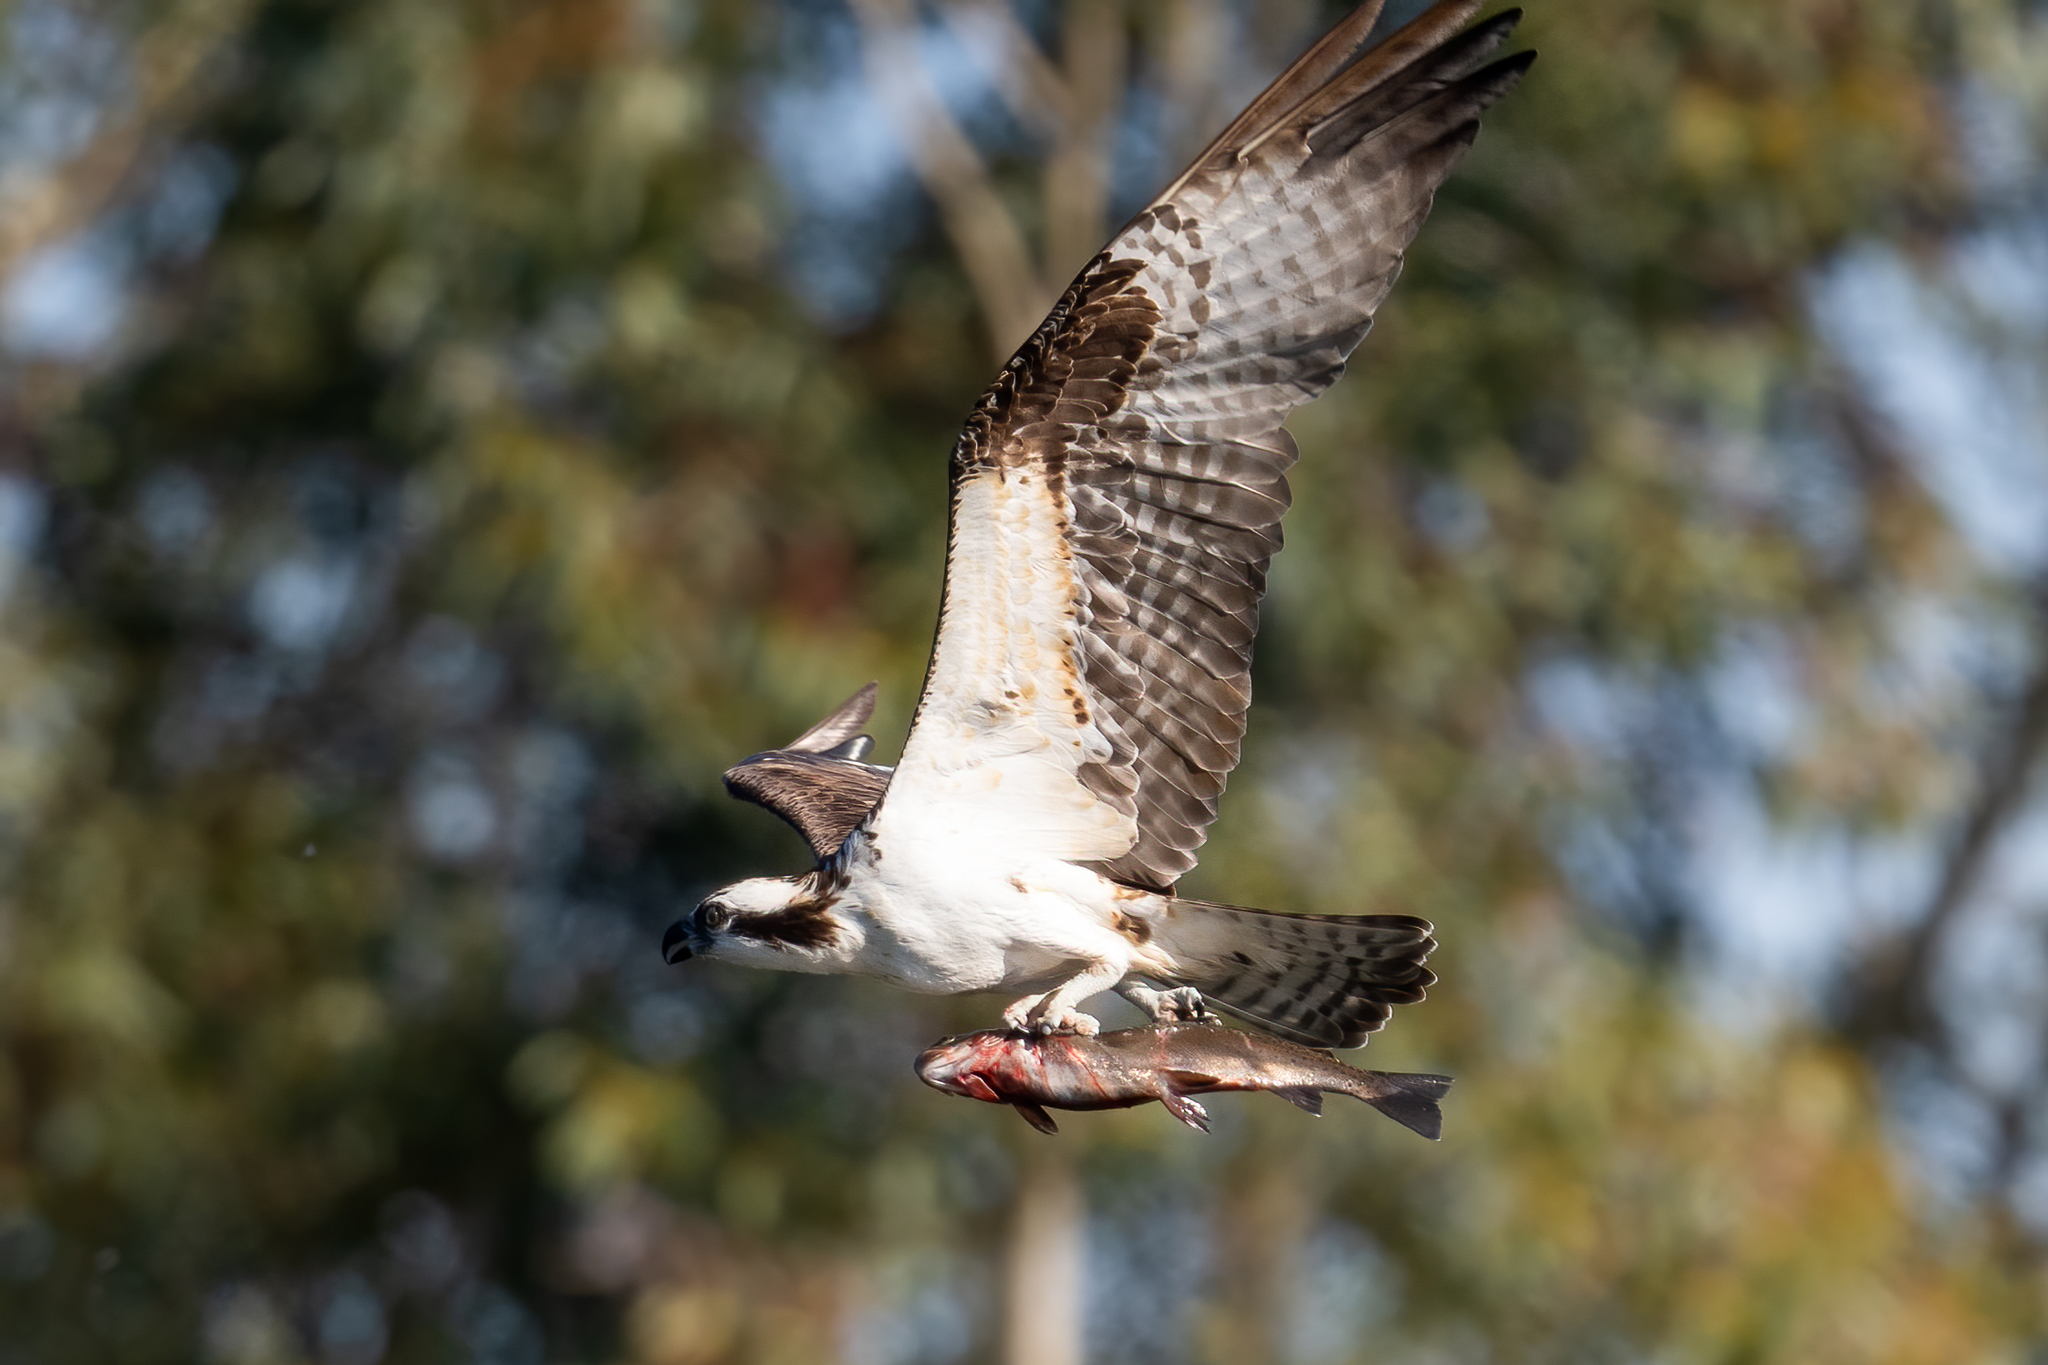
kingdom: Animalia
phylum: Chordata
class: Aves
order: Accipitriformes
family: Pandionidae
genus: Pandion
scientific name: Pandion haliaetus
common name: Osprey
